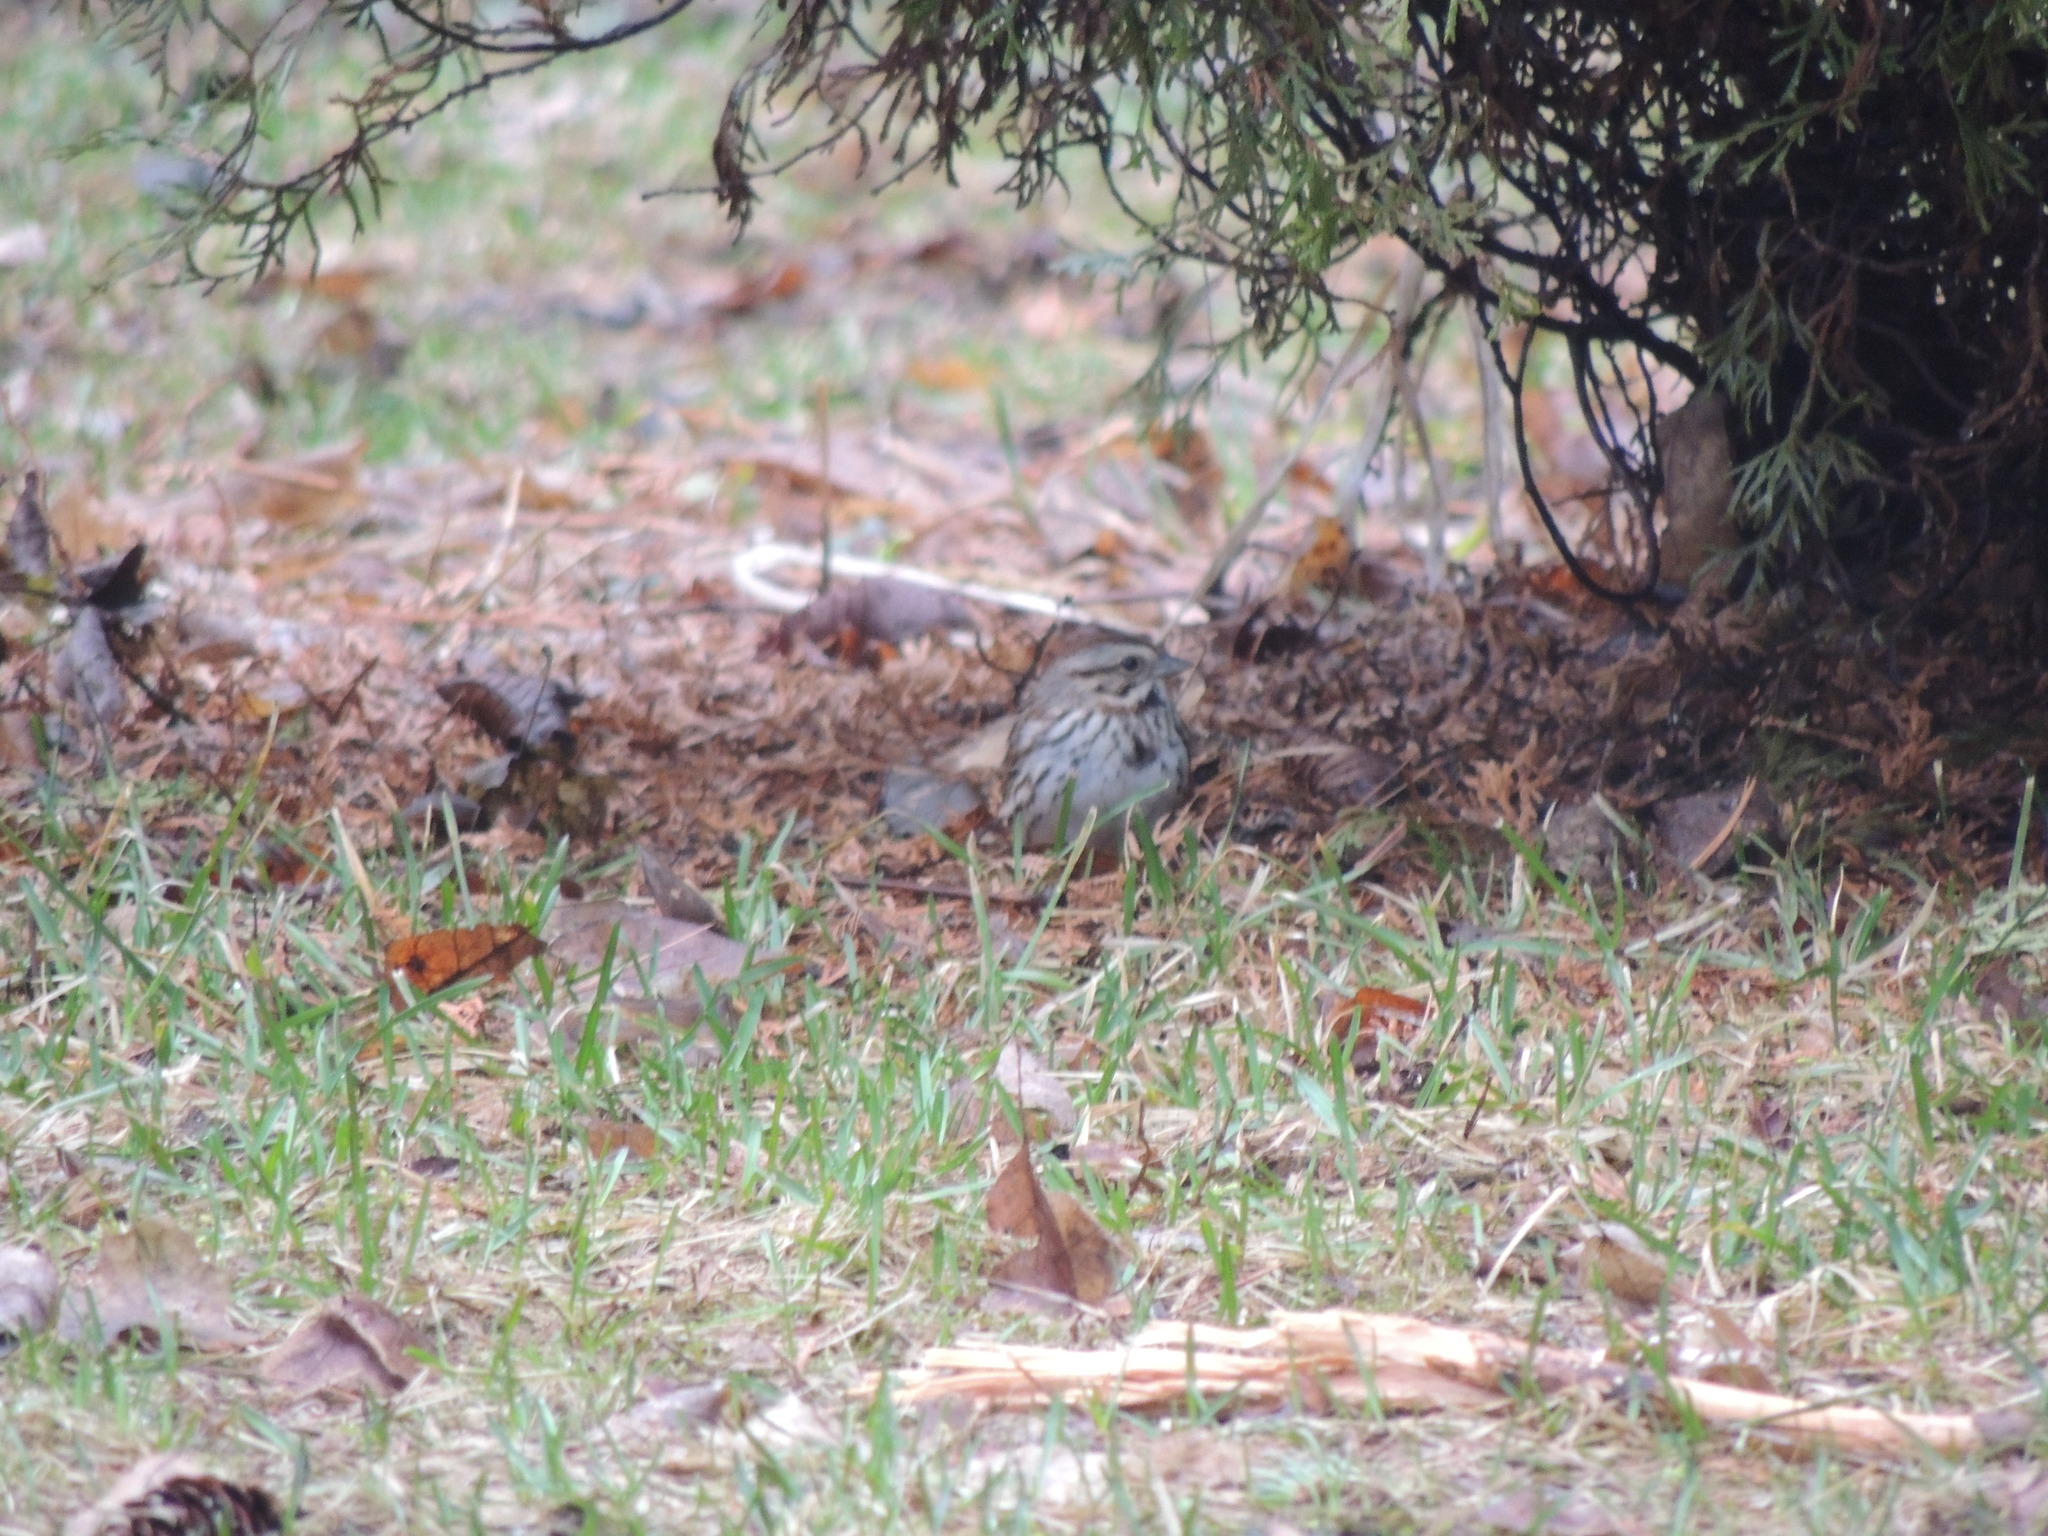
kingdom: Animalia
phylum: Chordata
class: Aves
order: Passeriformes
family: Passerellidae
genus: Melospiza
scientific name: Melospiza melodia
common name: Song sparrow
